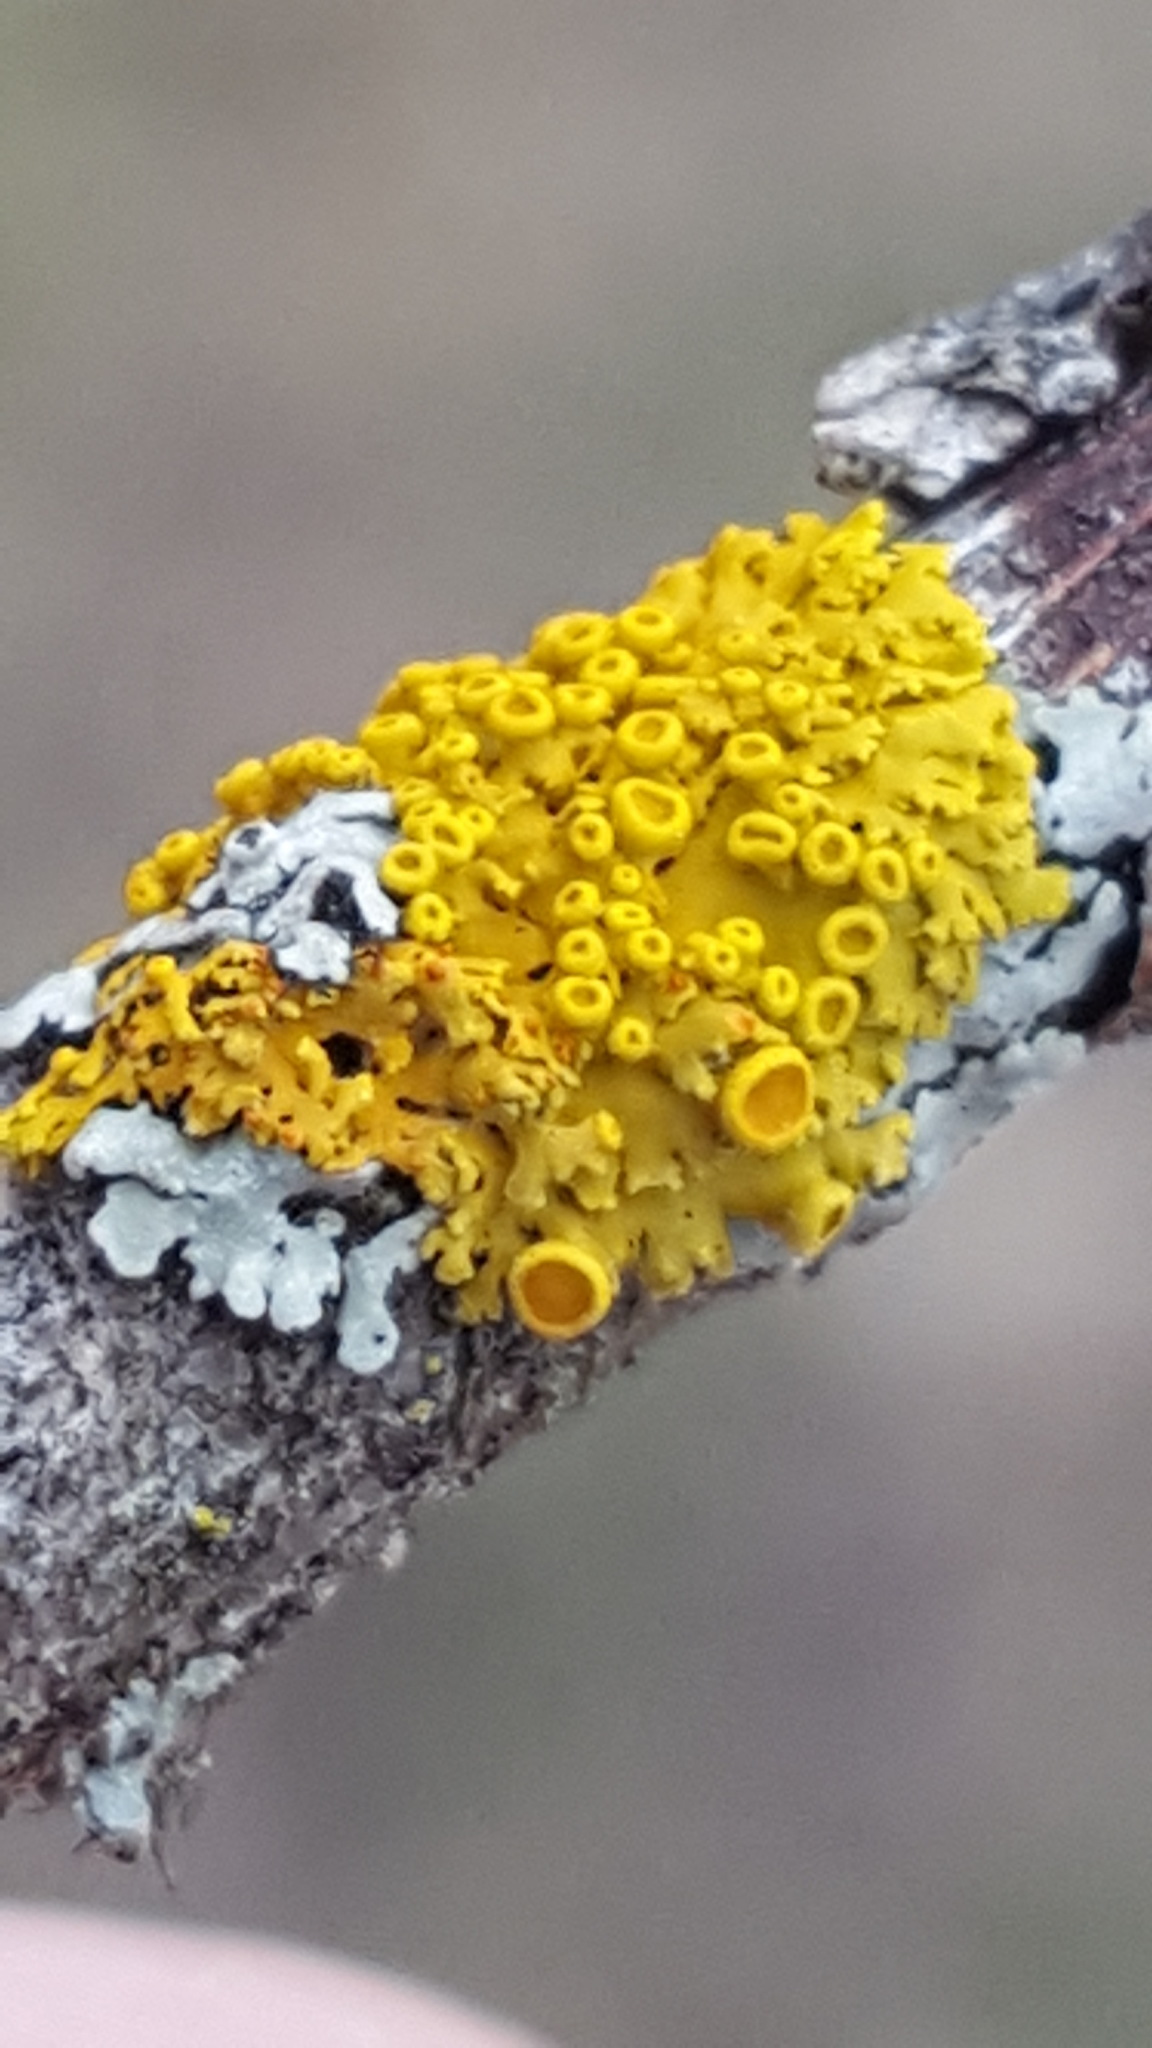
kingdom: Fungi
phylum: Ascomycota
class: Lecanoromycetes
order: Teloschistales
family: Teloschistaceae
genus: Polycauliona
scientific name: Polycauliona polycarpa
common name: Pin-cushion sunburst lichen
